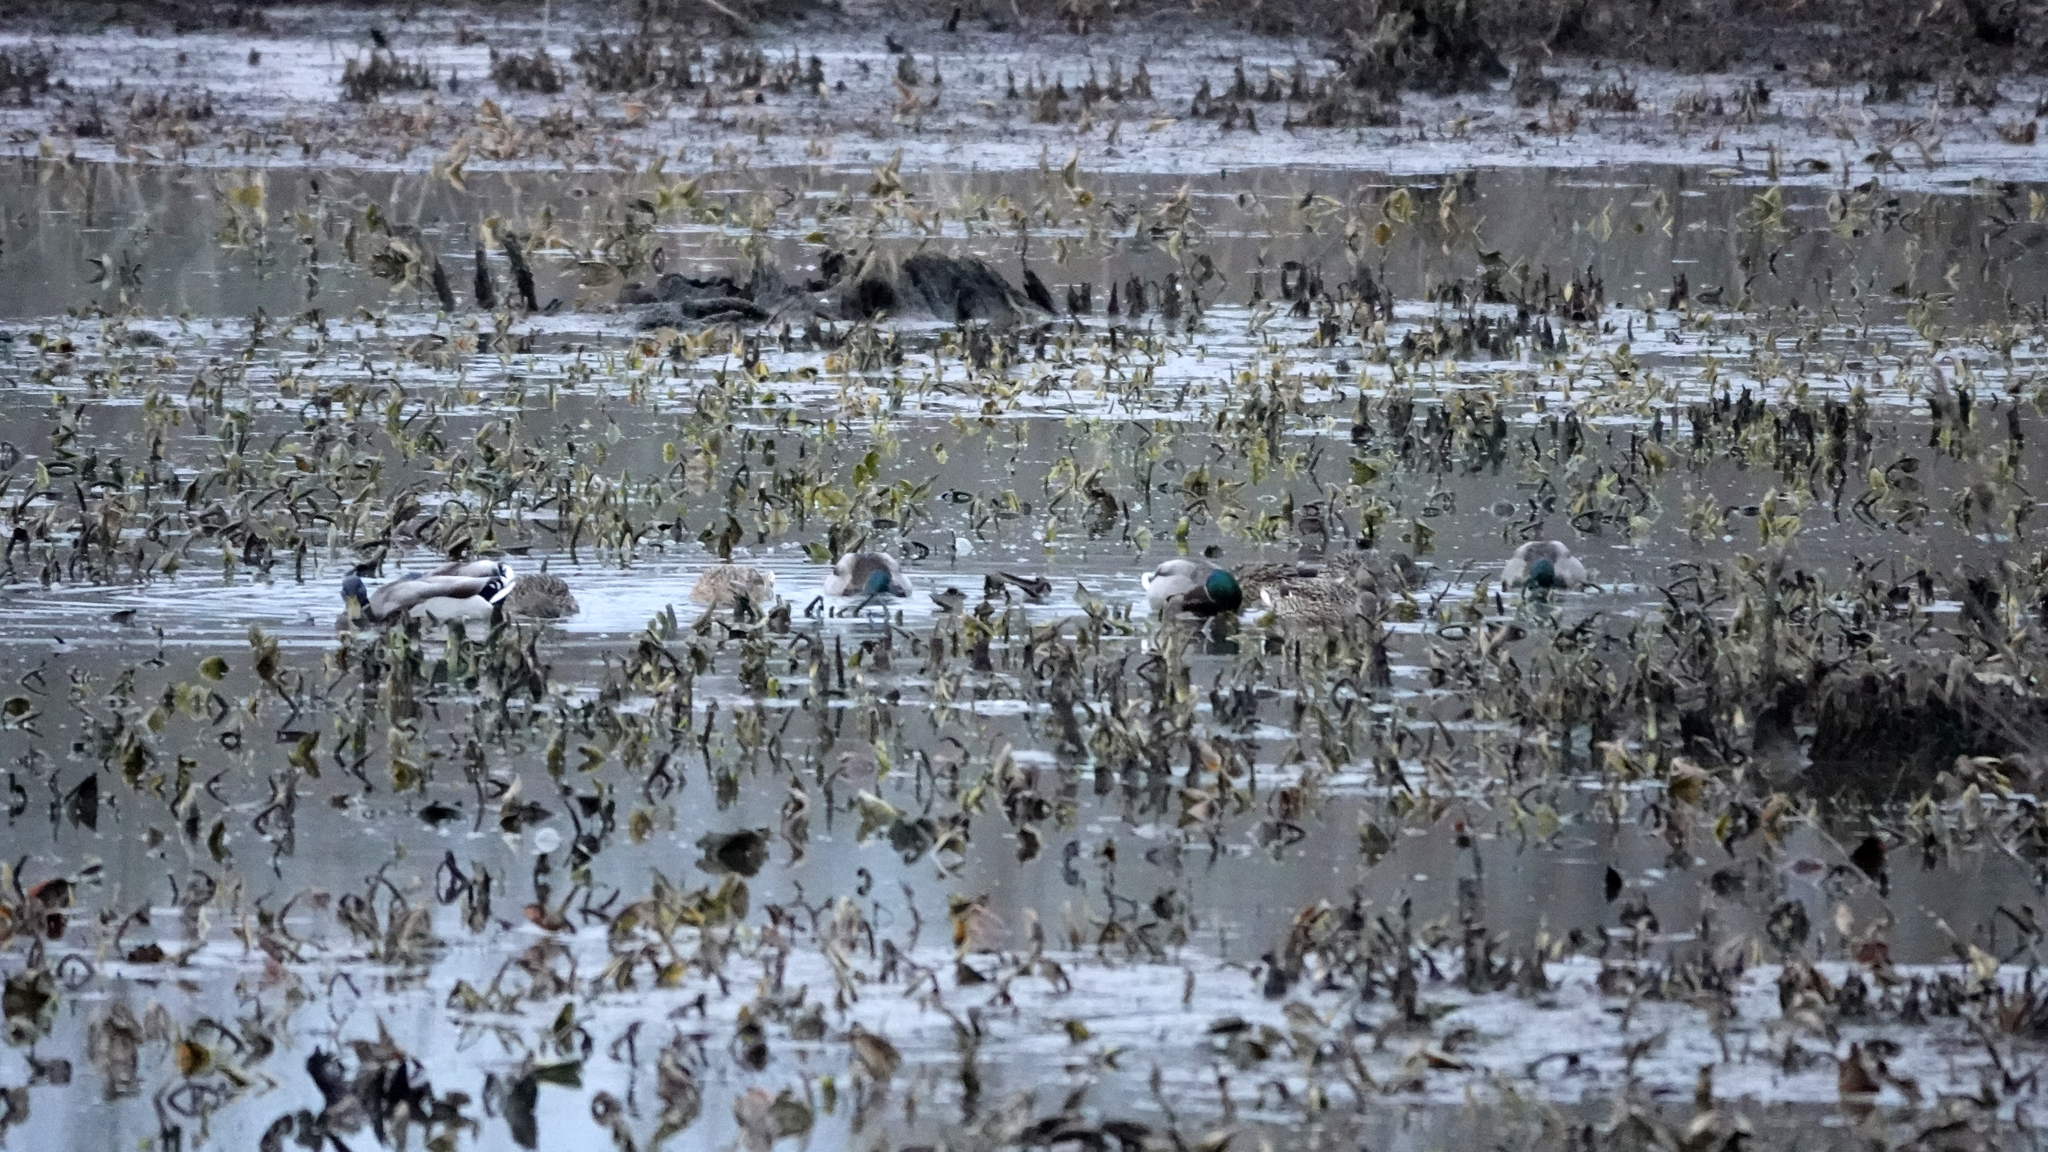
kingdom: Animalia
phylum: Chordata
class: Aves
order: Anseriformes
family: Anatidae
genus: Anas
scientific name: Anas platyrhynchos
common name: Mallard
